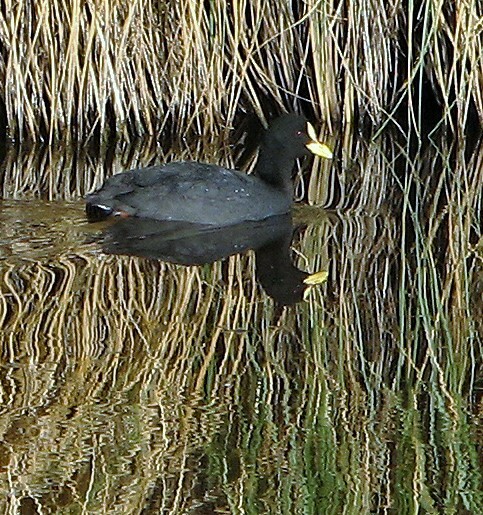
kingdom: Animalia
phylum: Chordata
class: Aves
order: Gruiformes
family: Rallidae
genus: Fulica
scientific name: Fulica armillata
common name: Red-gartered coot
